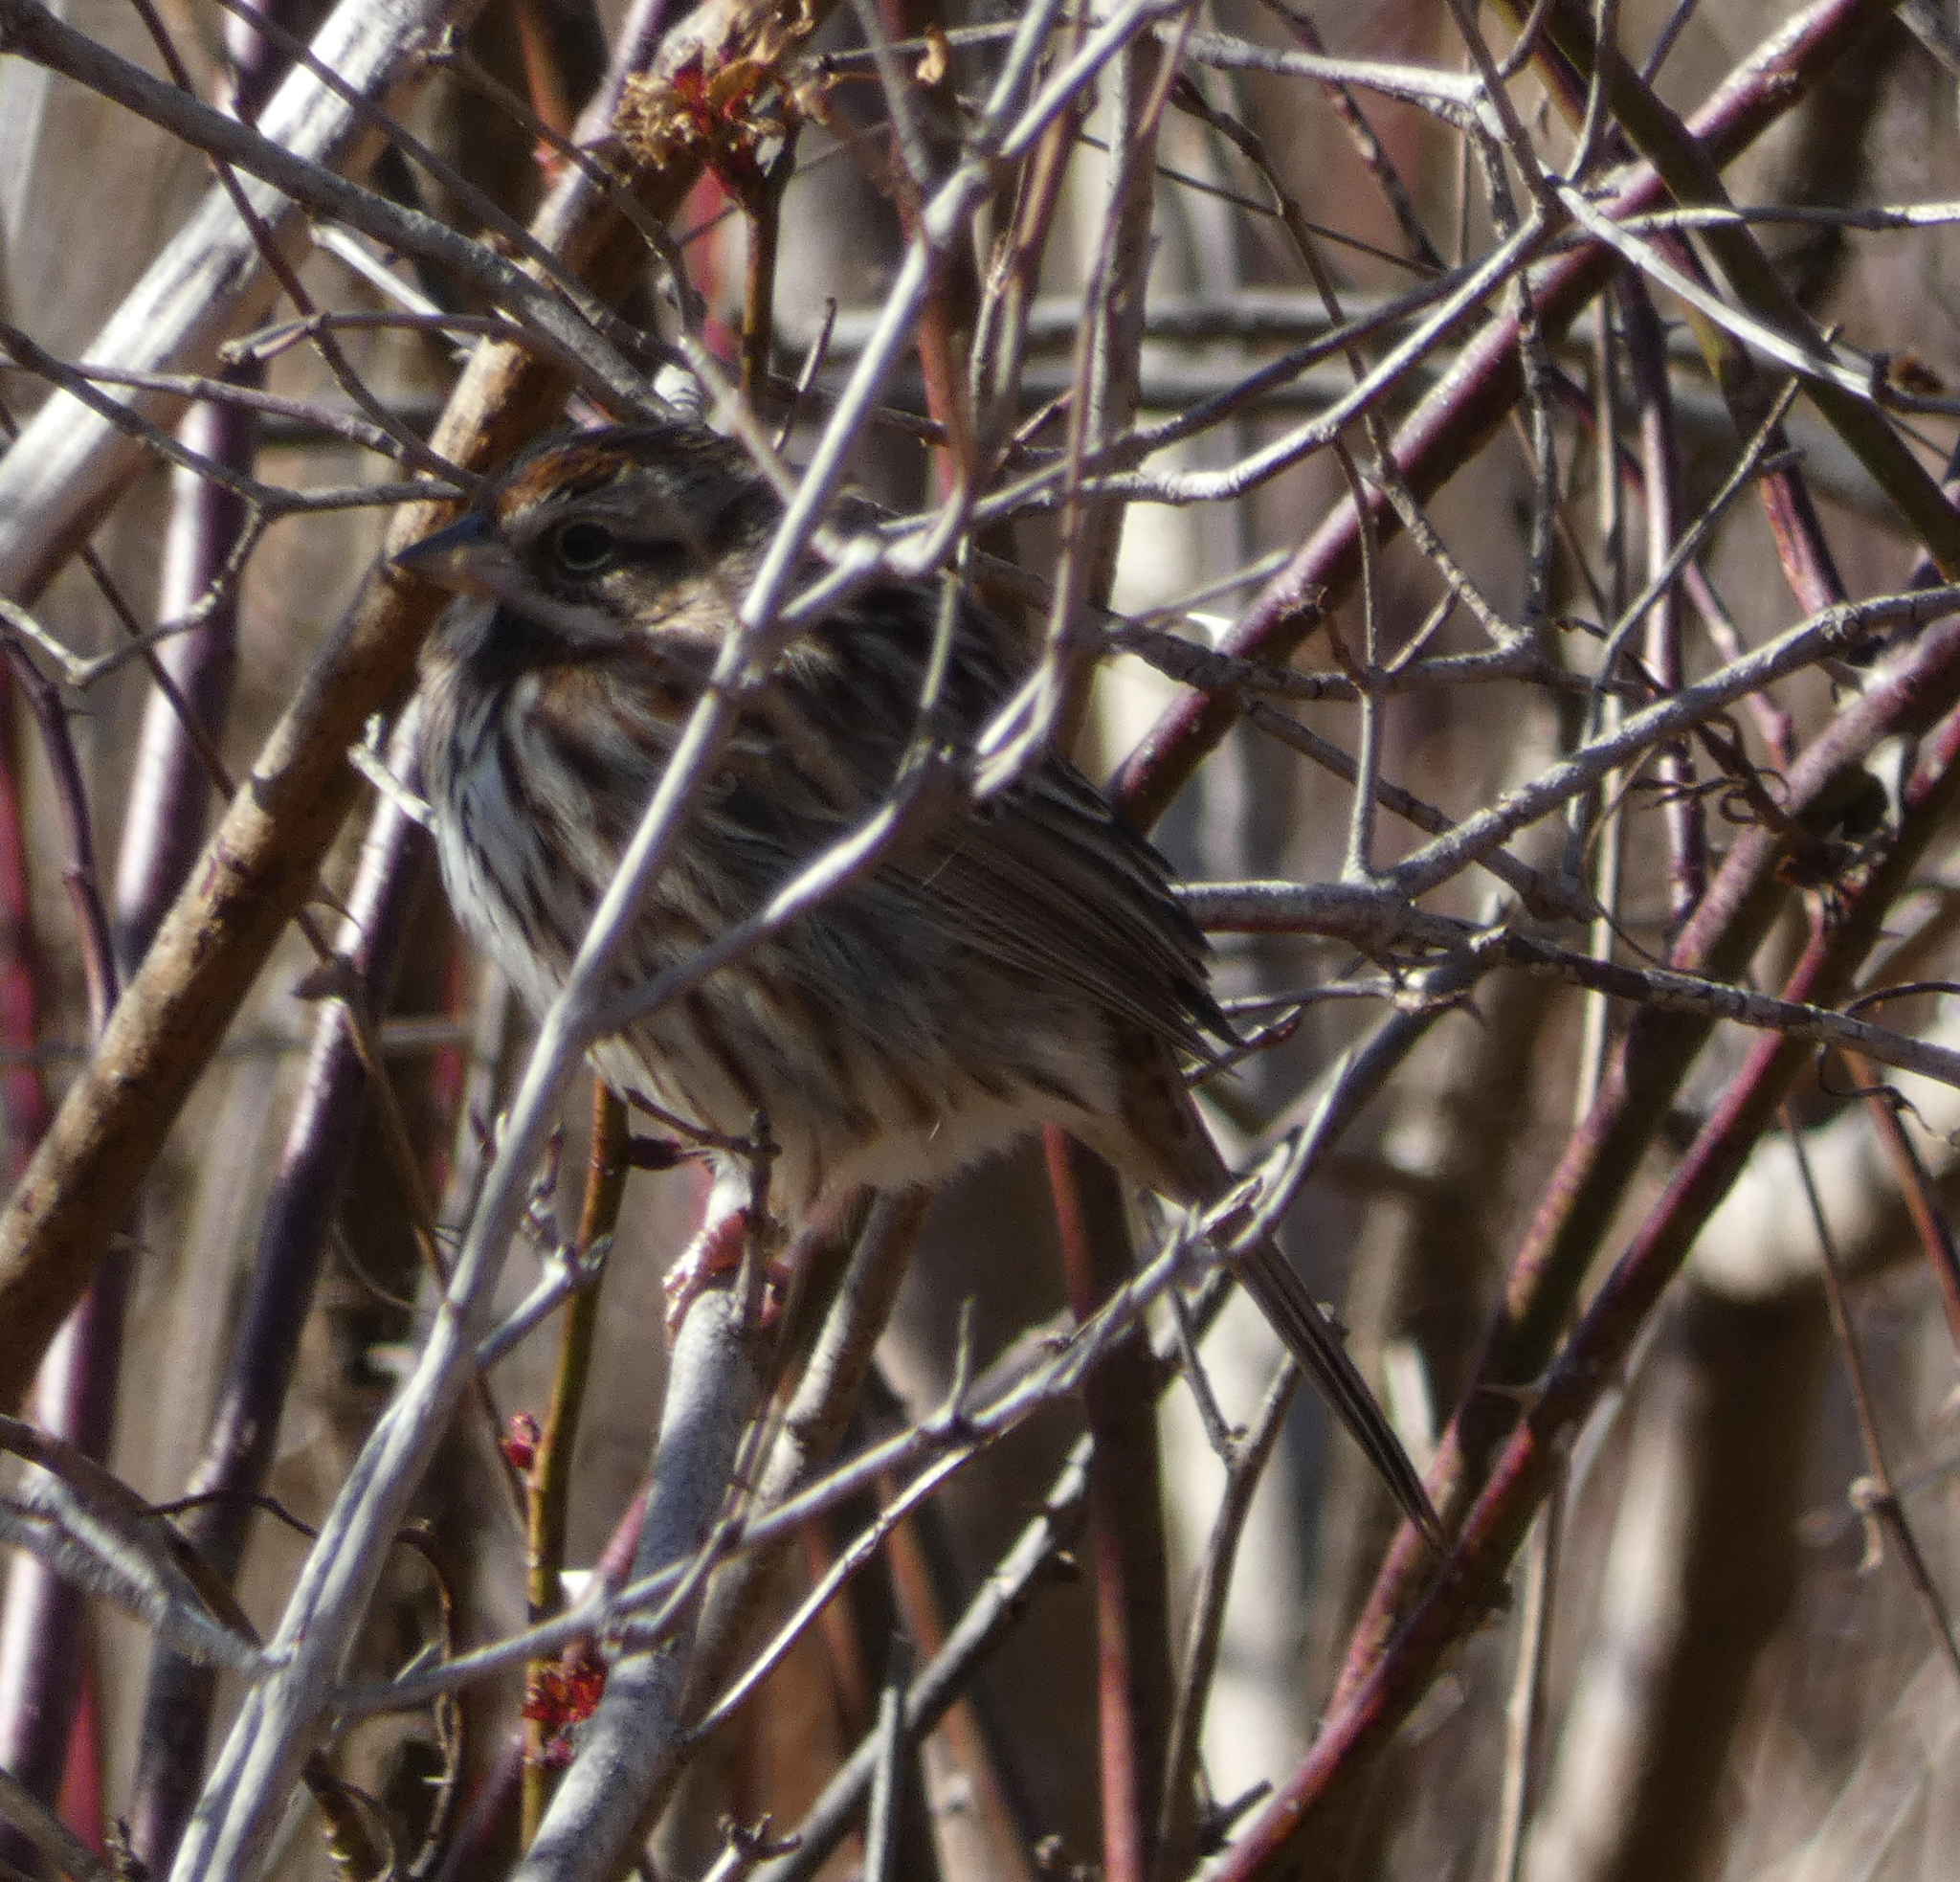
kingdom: Animalia
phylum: Chordata
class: Aves
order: Passeriformes
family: Passerellidae
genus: Melospiza
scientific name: Melospiza melodia
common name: Song sparrow
